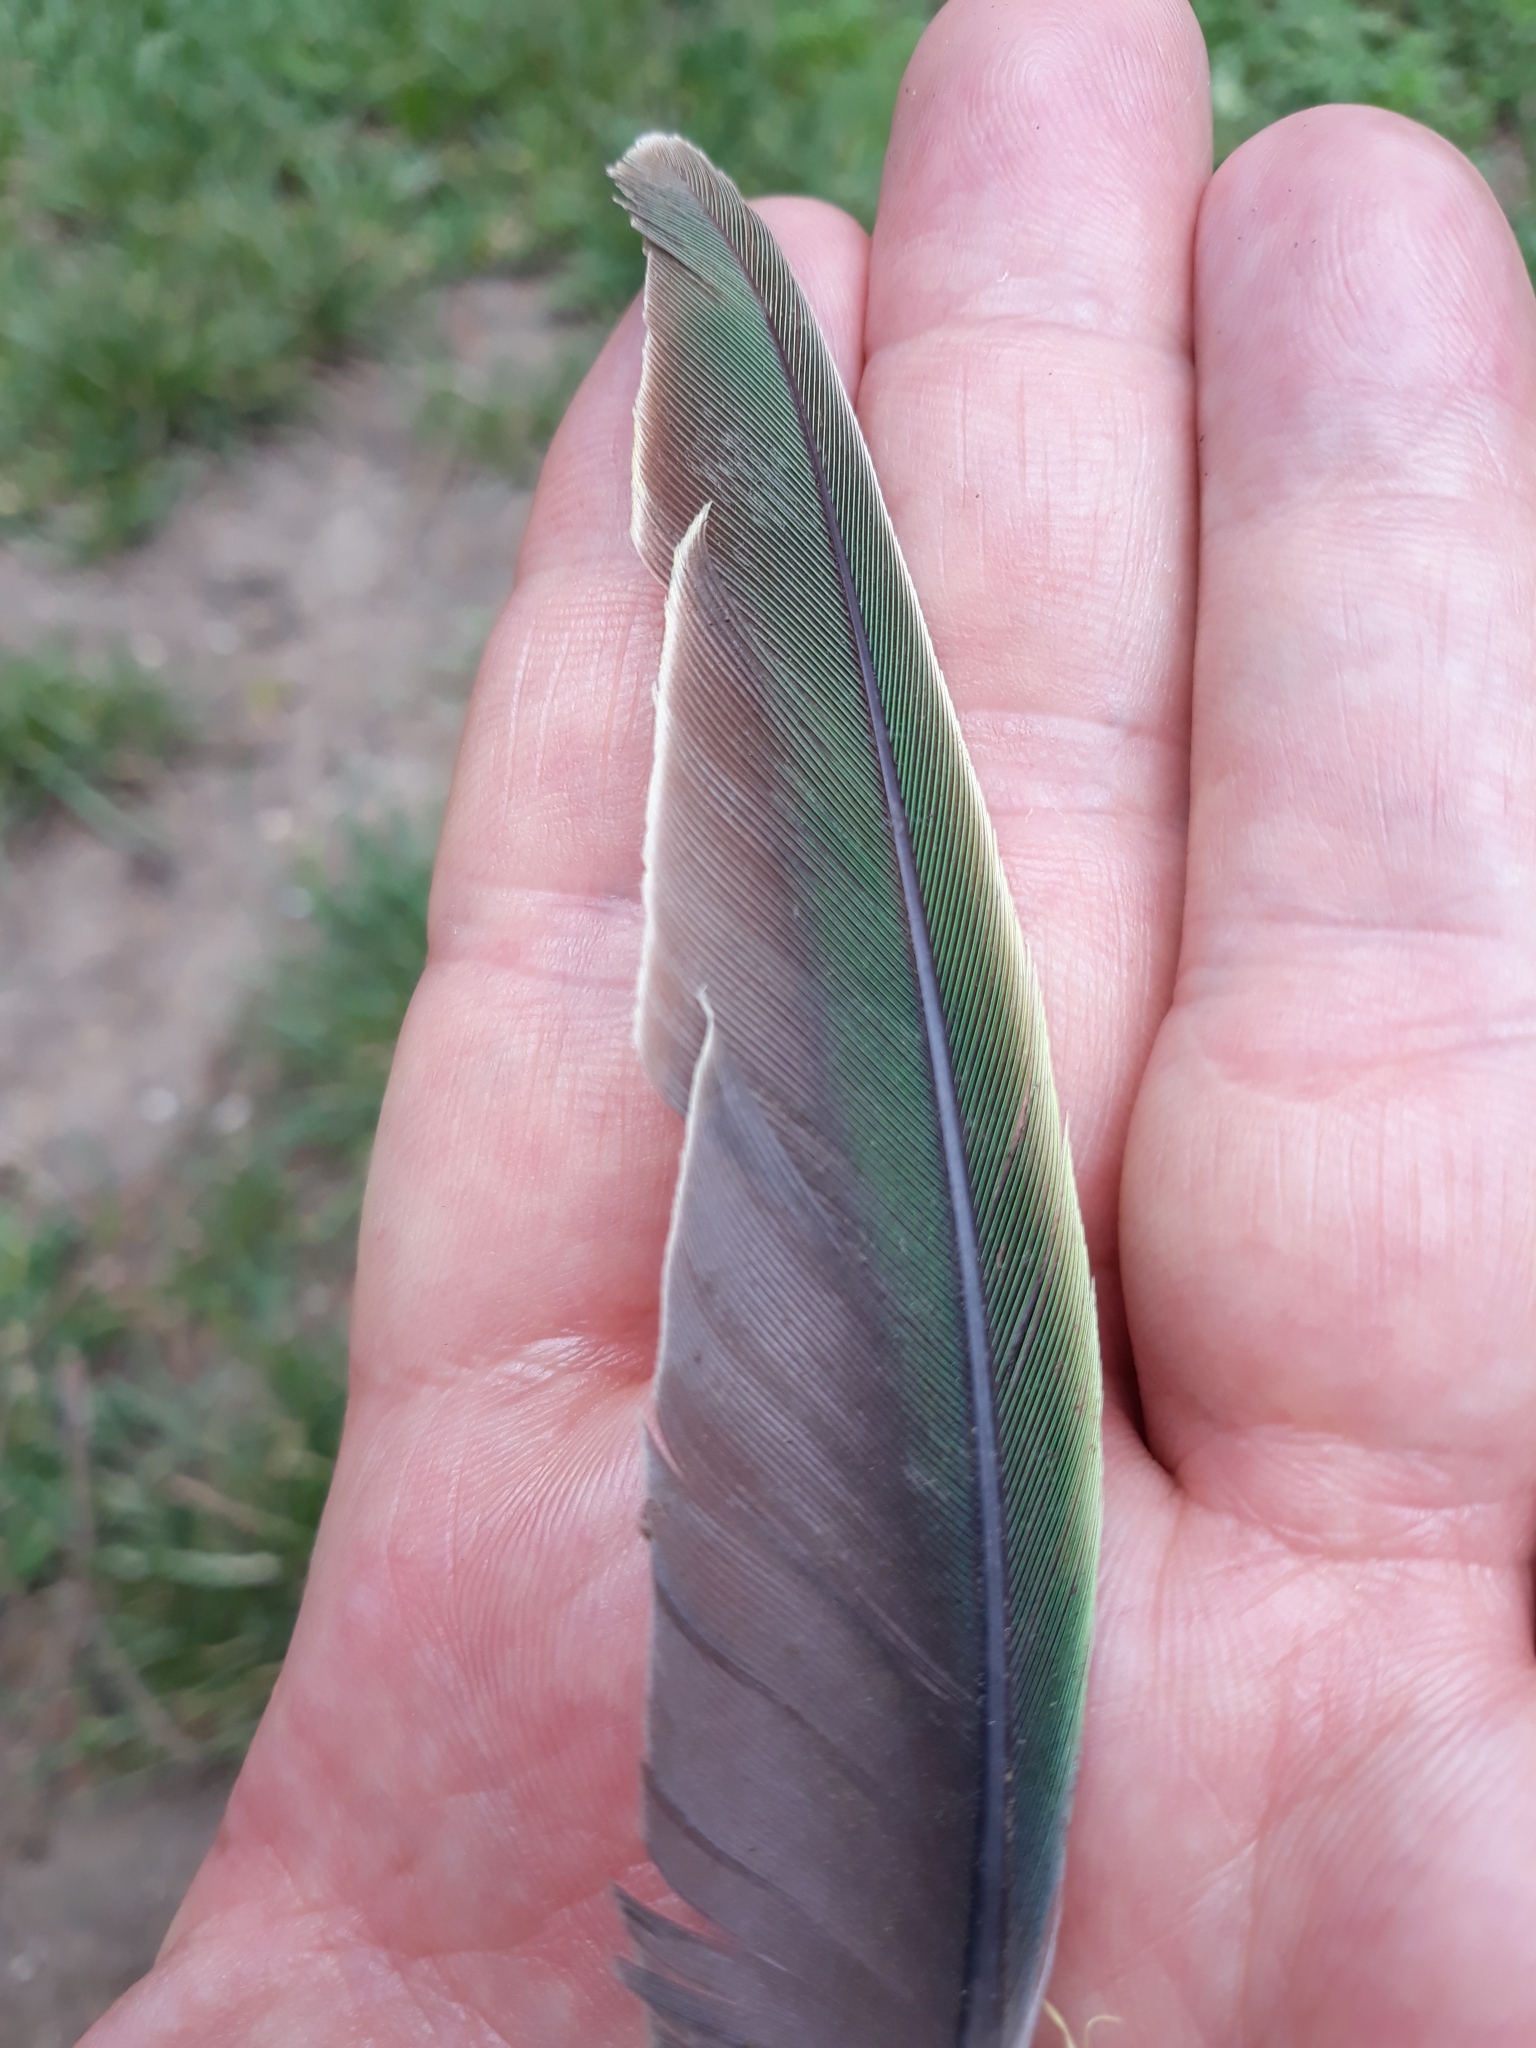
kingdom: Animalia
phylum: Chordata
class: Aves
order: Psittaciformes
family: Psittacidae
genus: Psittacula
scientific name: Psittacula krameri
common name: Rose-ringed parakeet
